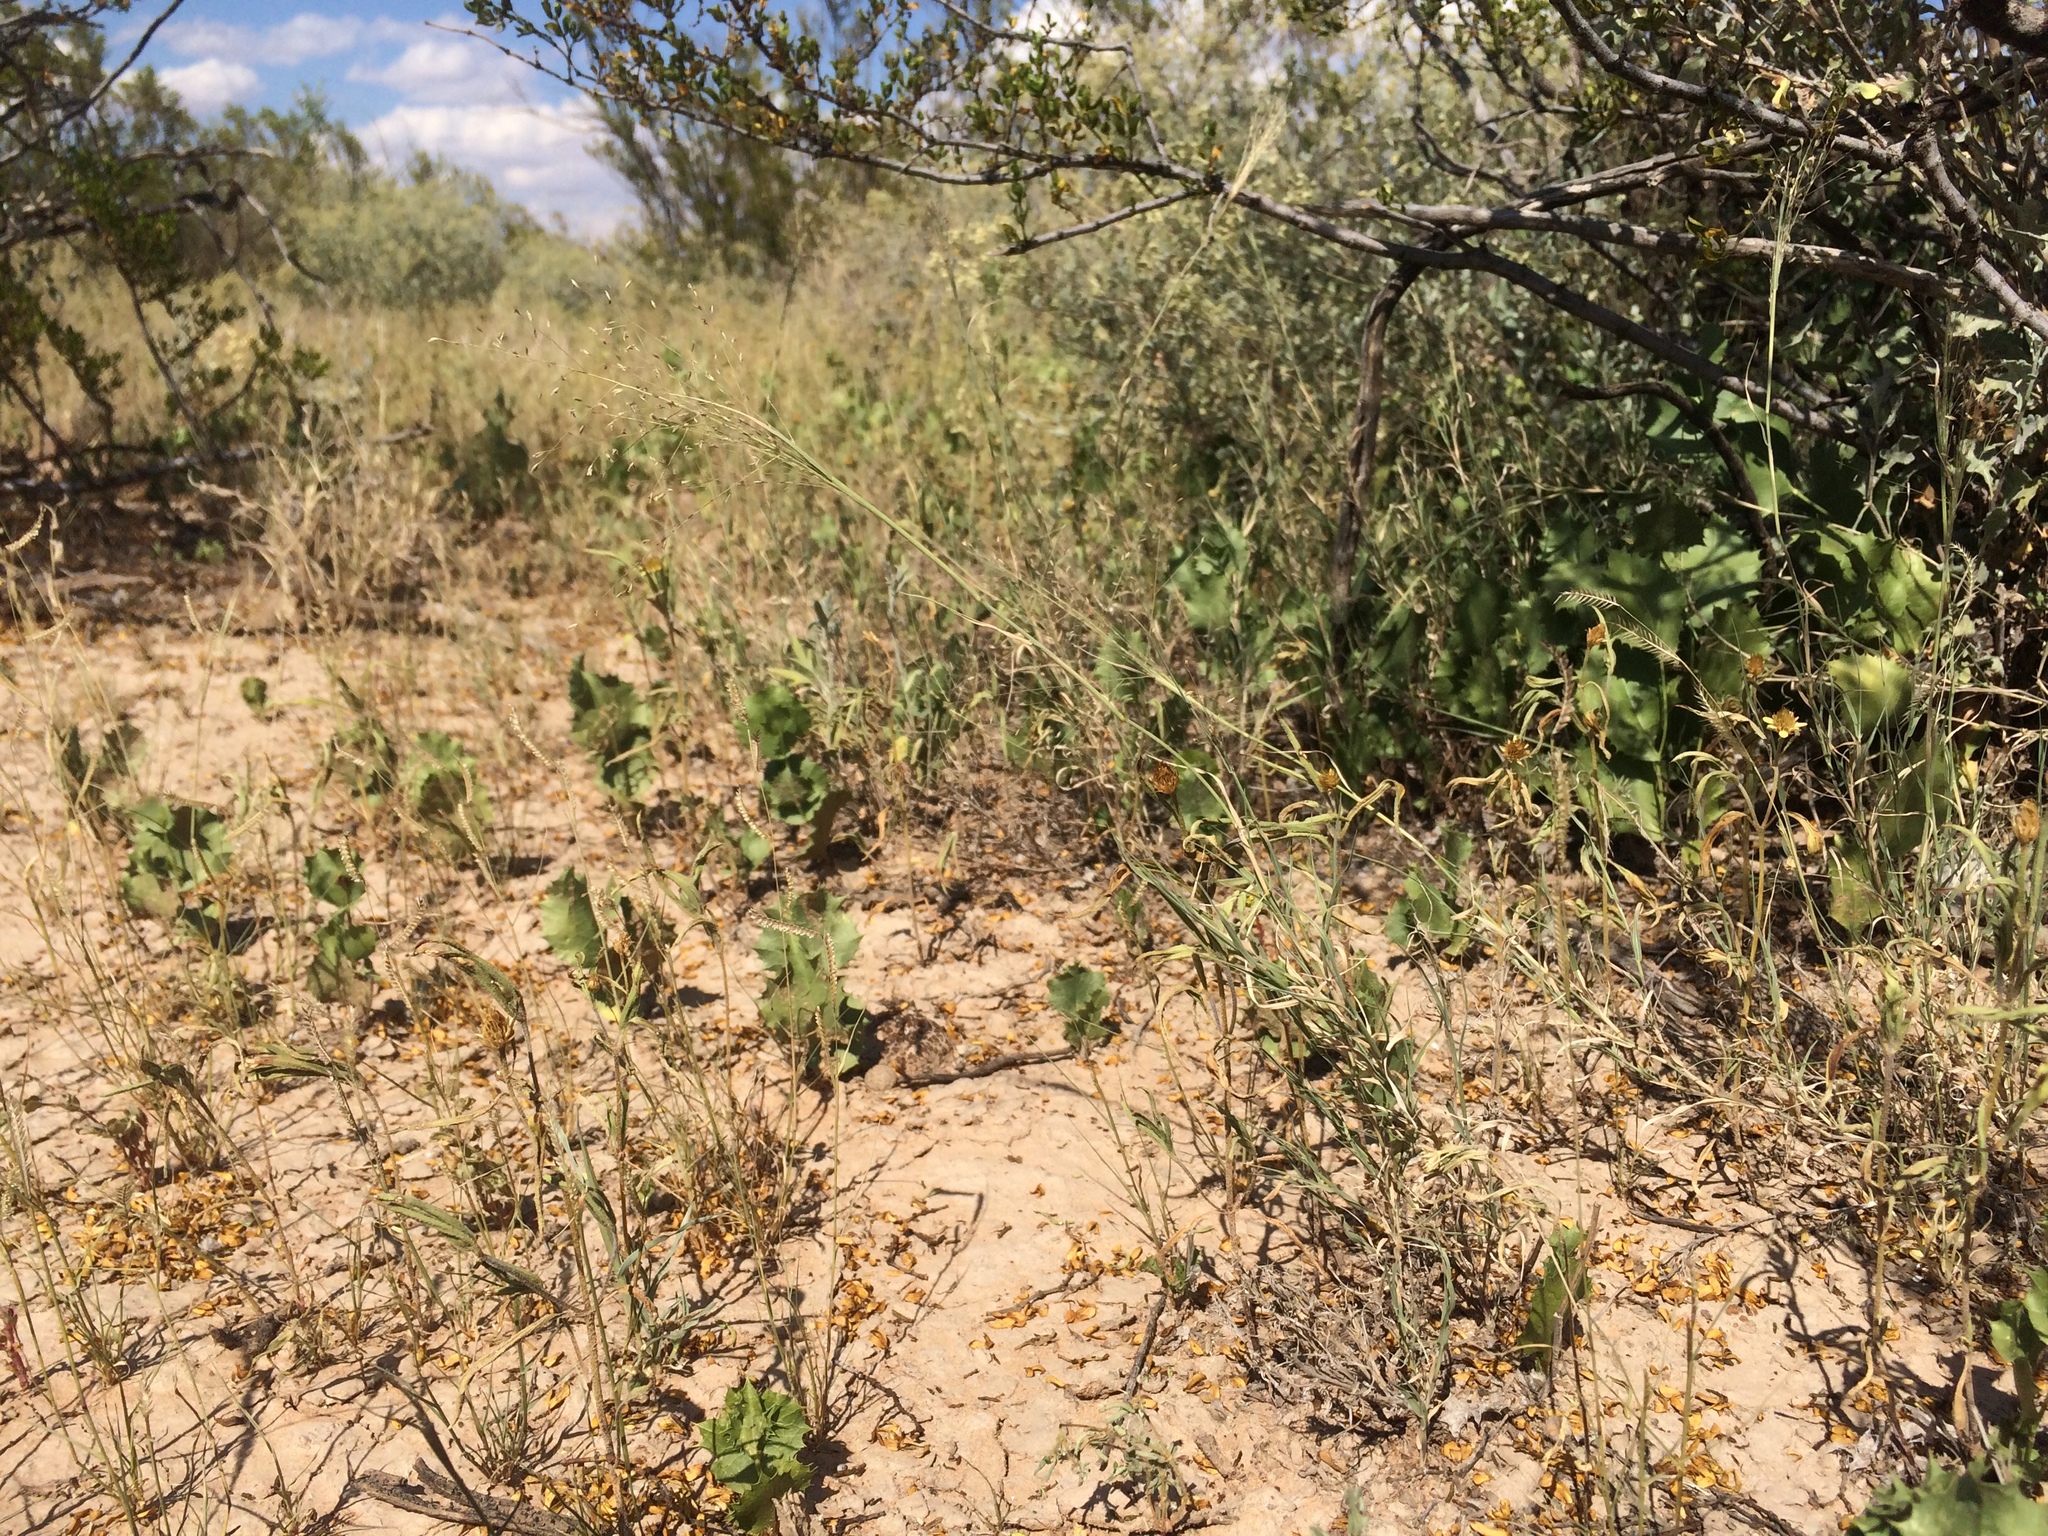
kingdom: Plantae
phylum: Tracheophyta
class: Liliopsida
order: Poales
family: Poaceae
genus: Muhlenbergia
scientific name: Muhlenbergia arenacea
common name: Ear muhly
